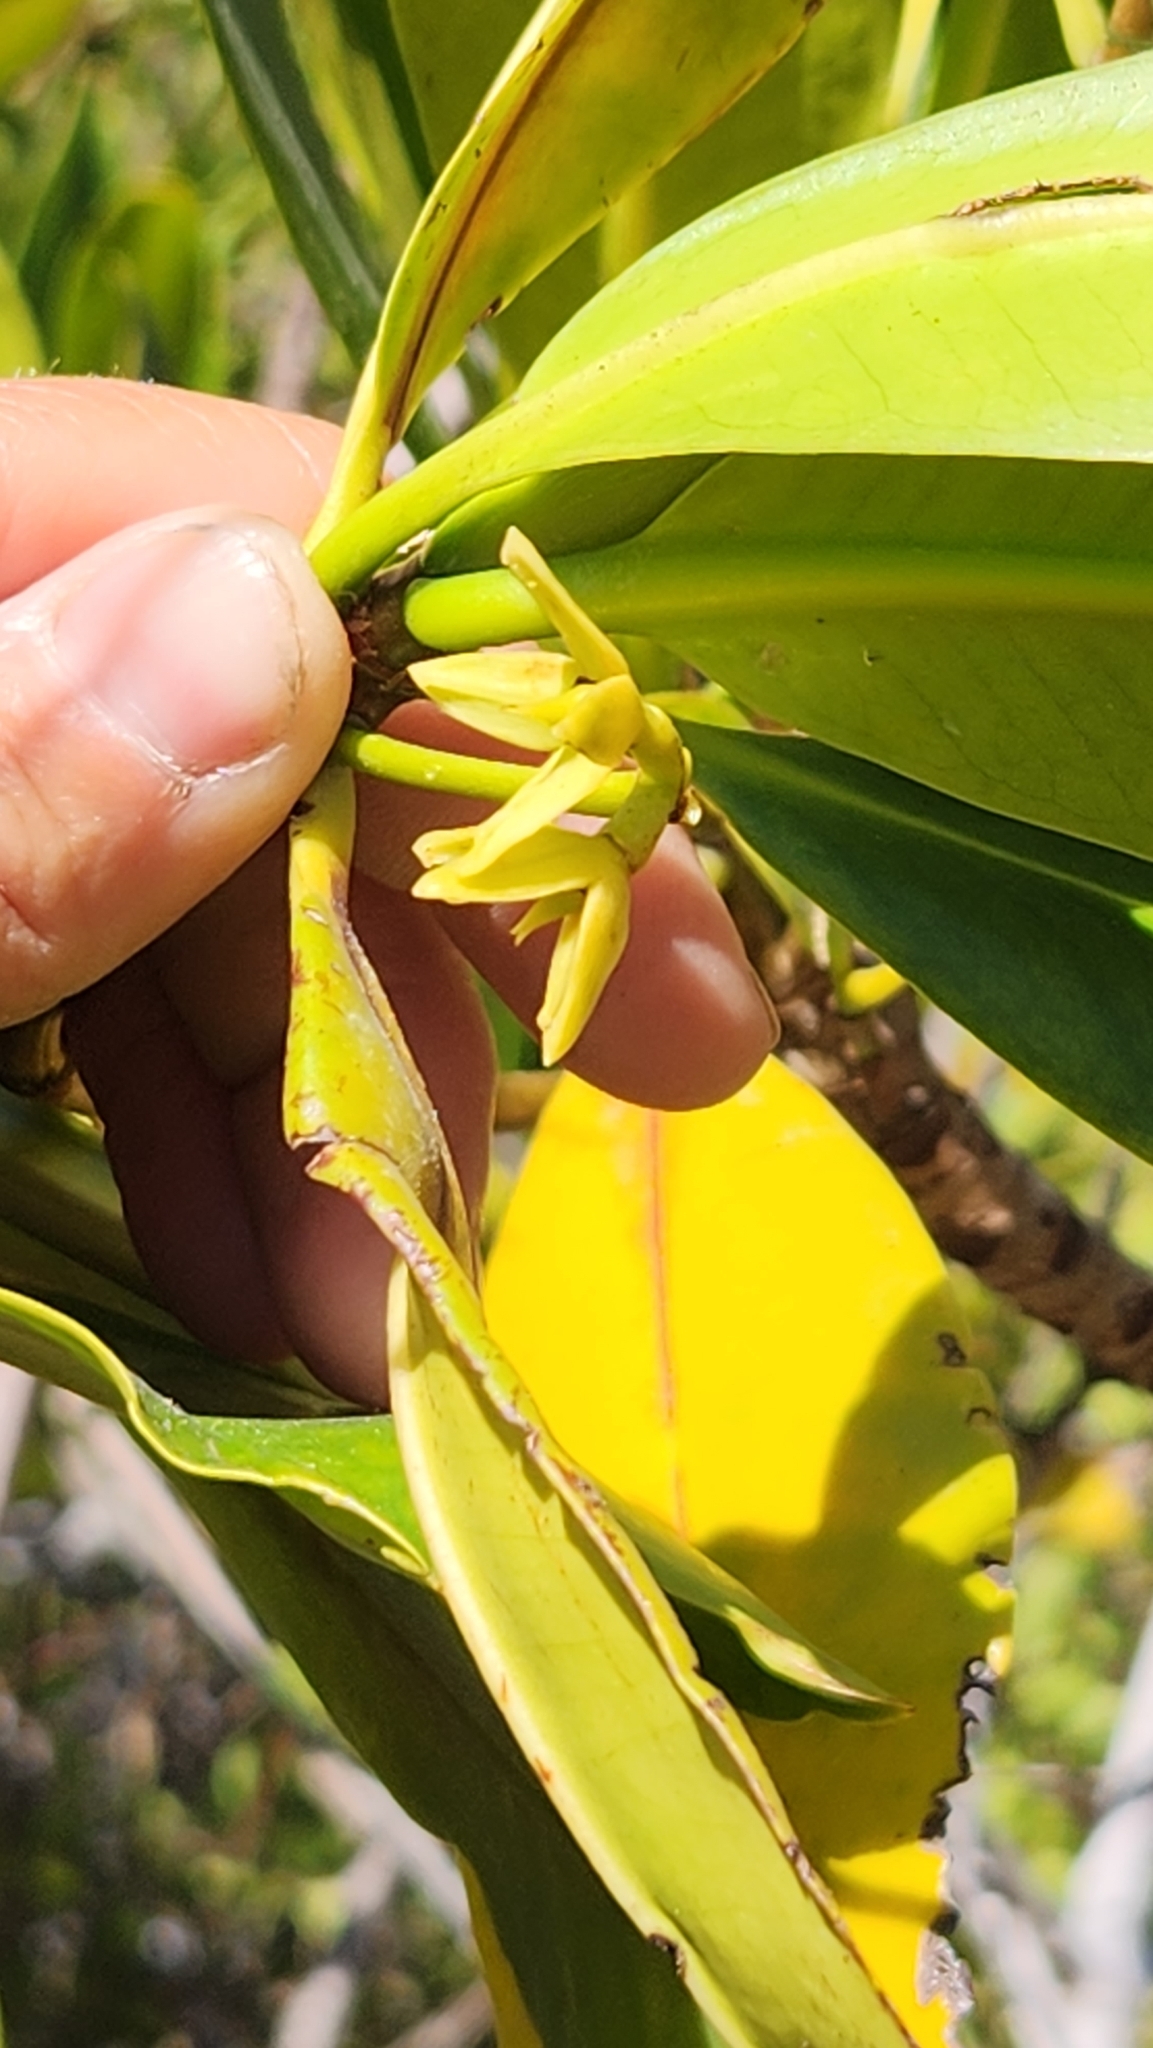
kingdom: Plantae
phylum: Tracheophyta
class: Magnoliopsida
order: Malpighiales
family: Rhizophoraceae
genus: Rhizophora
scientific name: Rhizophora mangle
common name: Red mangrove
